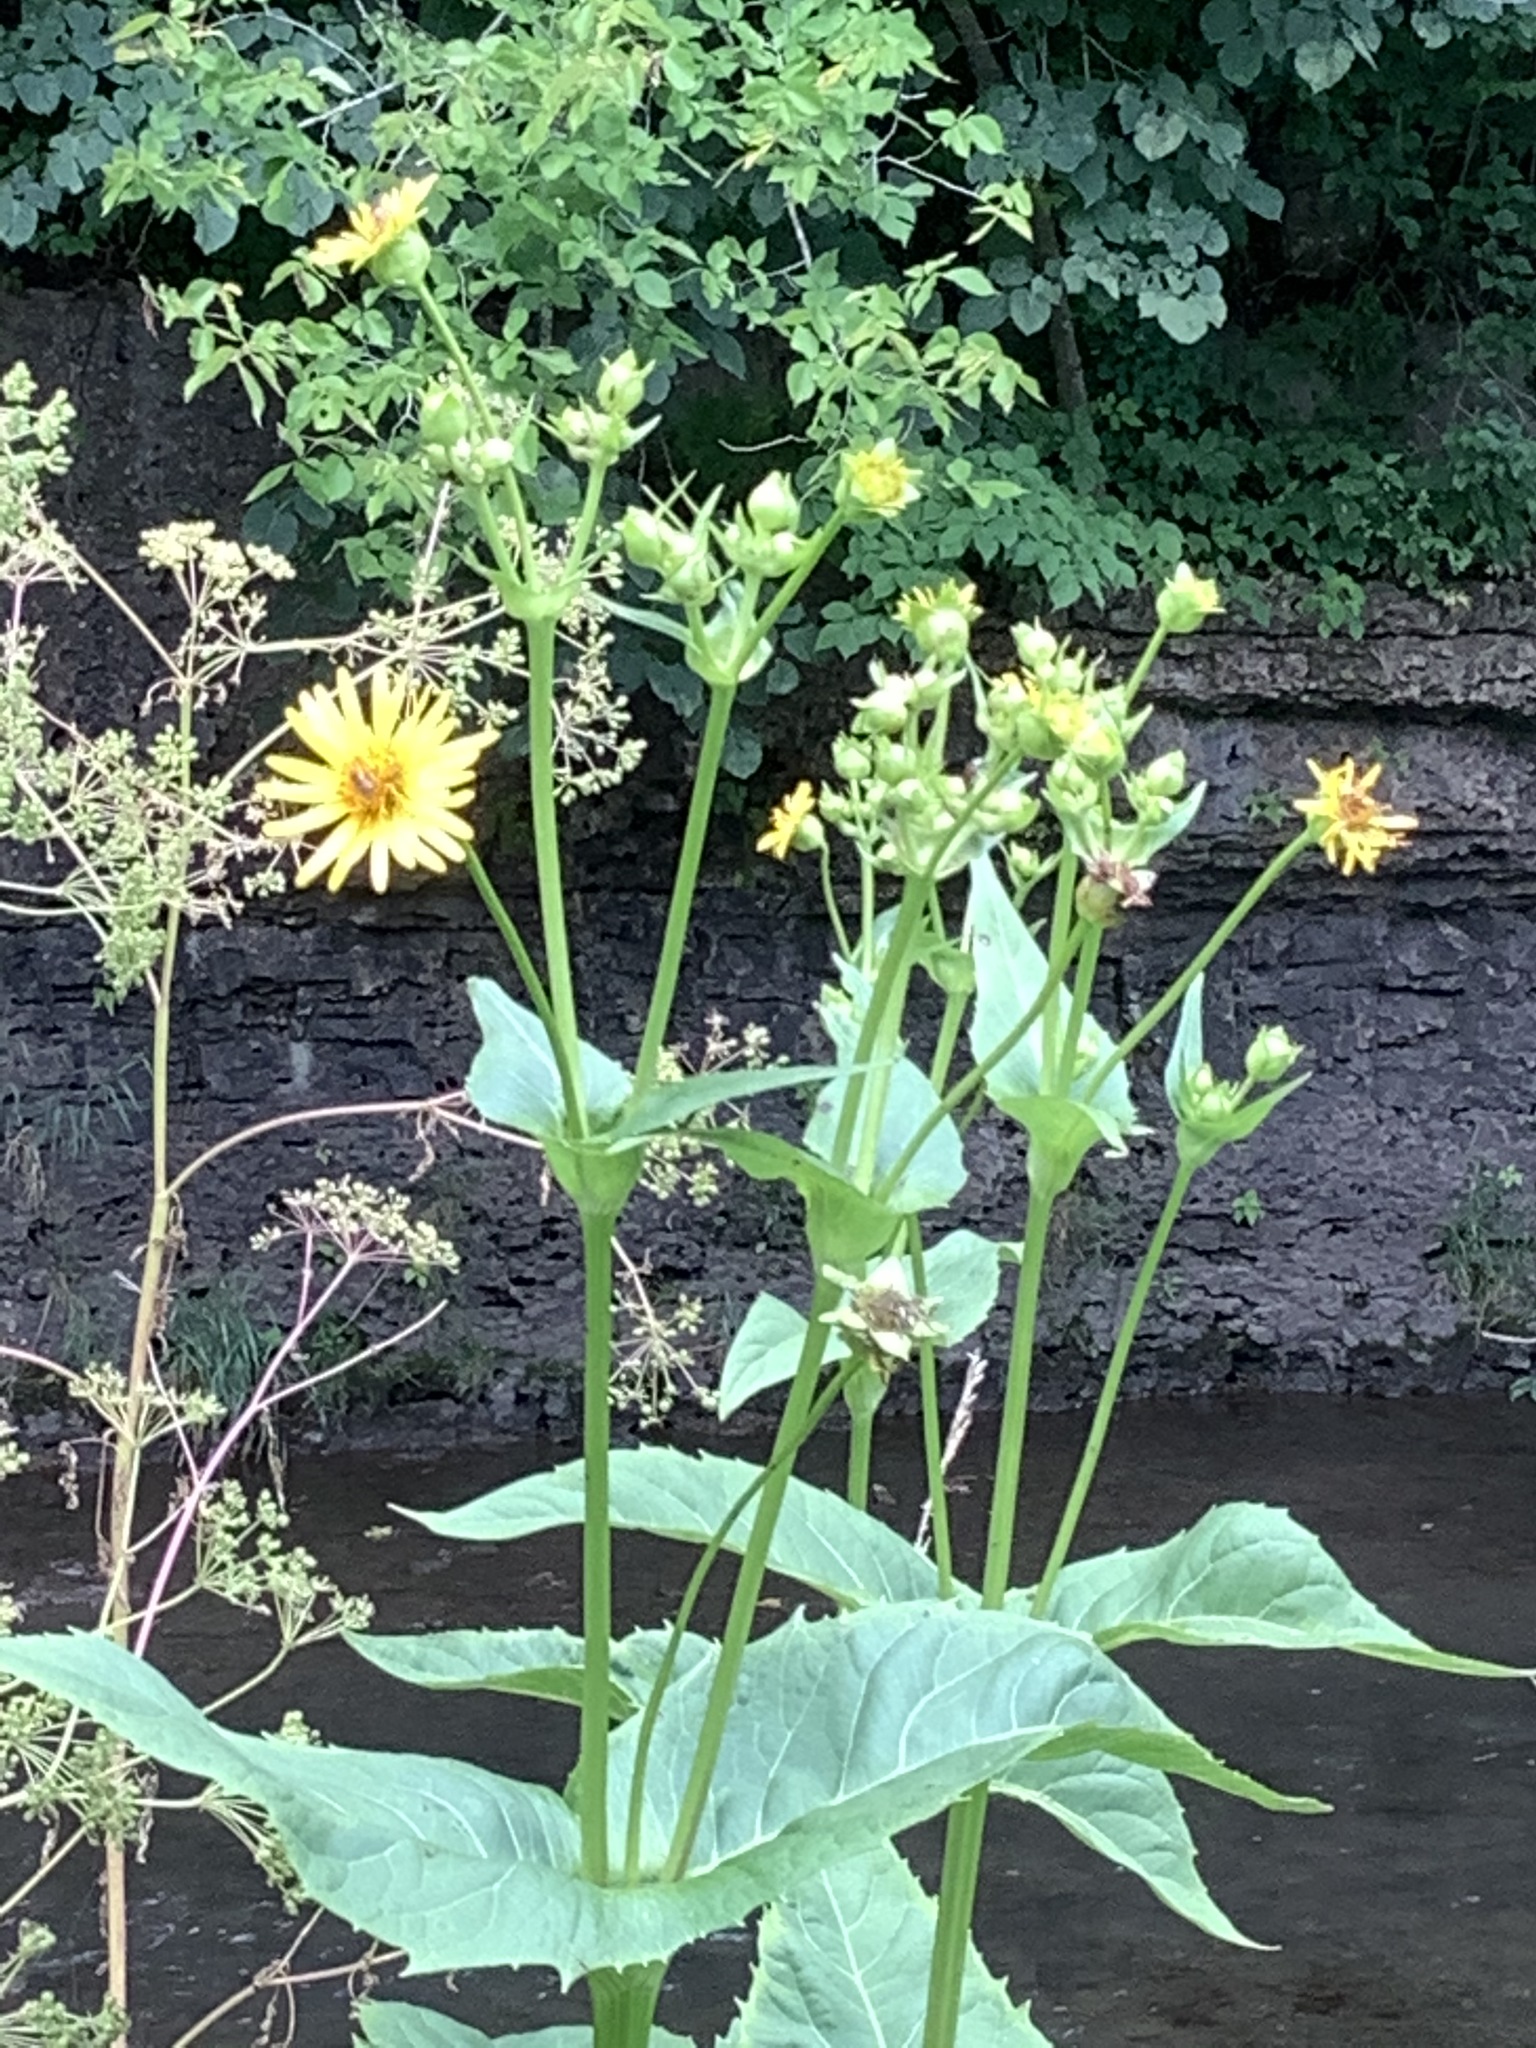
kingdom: Plantae
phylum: Tracheophyta
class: Magnoliopsida
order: Asterales
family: Asteraceae
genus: Silphium
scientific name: Silphium perfoliatum
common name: Cup-plant
